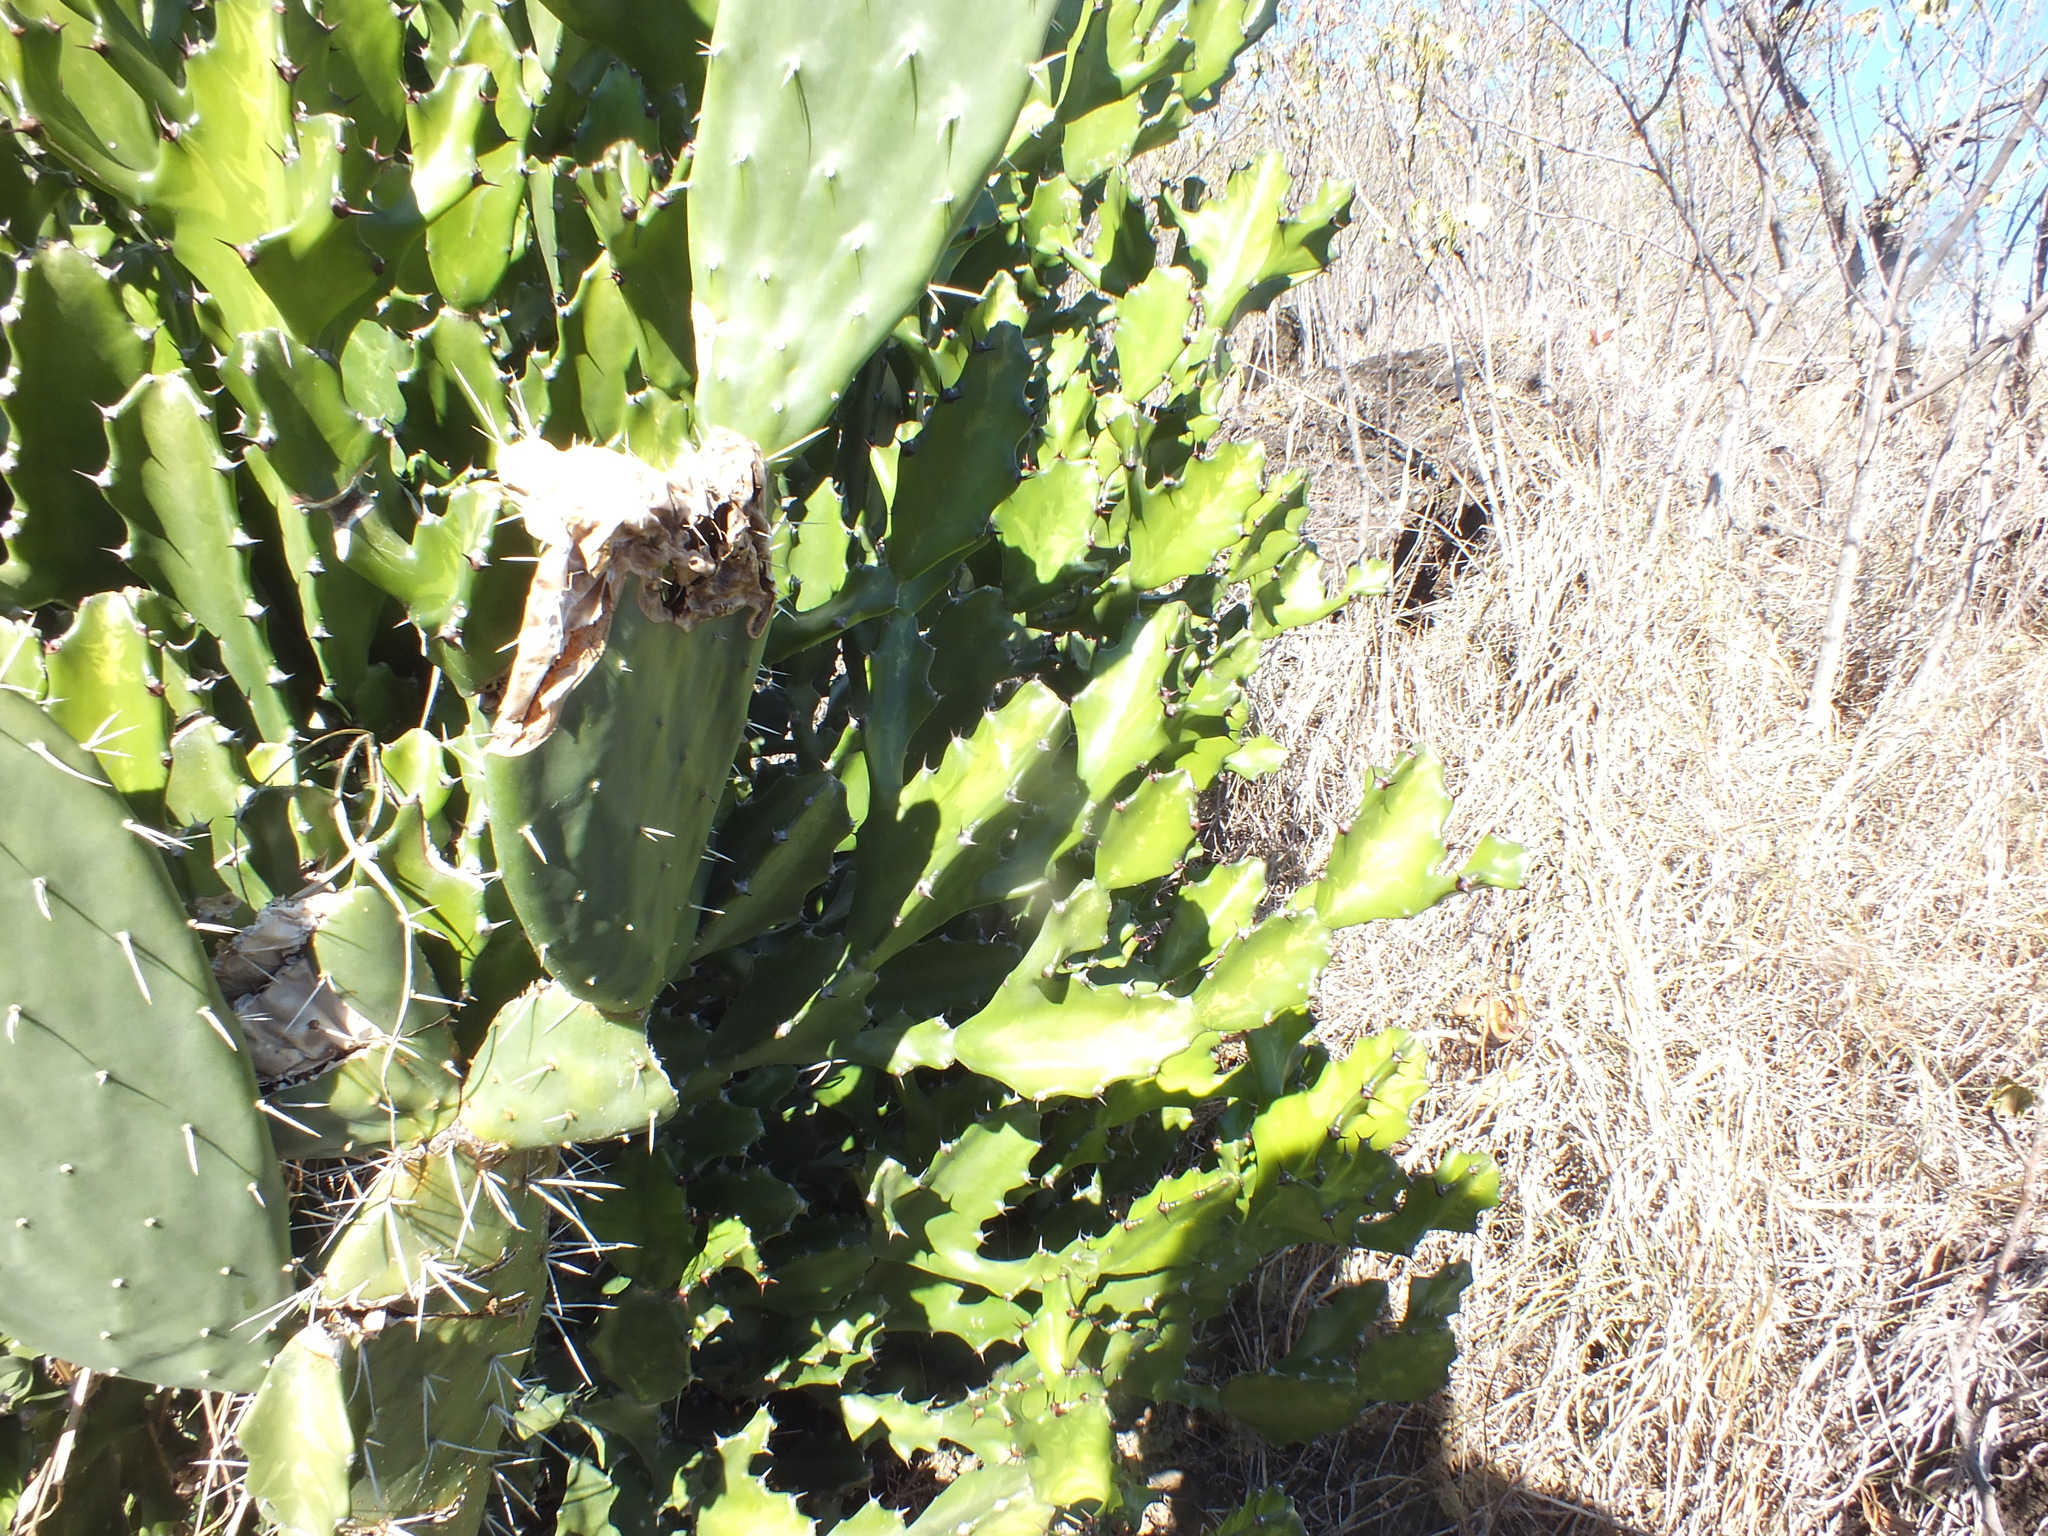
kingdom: Plantae
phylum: Tracheophyta
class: Magnoliopsida
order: Malpighiales
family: Euphorbiaceae
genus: Euphorbia
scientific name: Euphorbia lactea
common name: Mottled spurge
